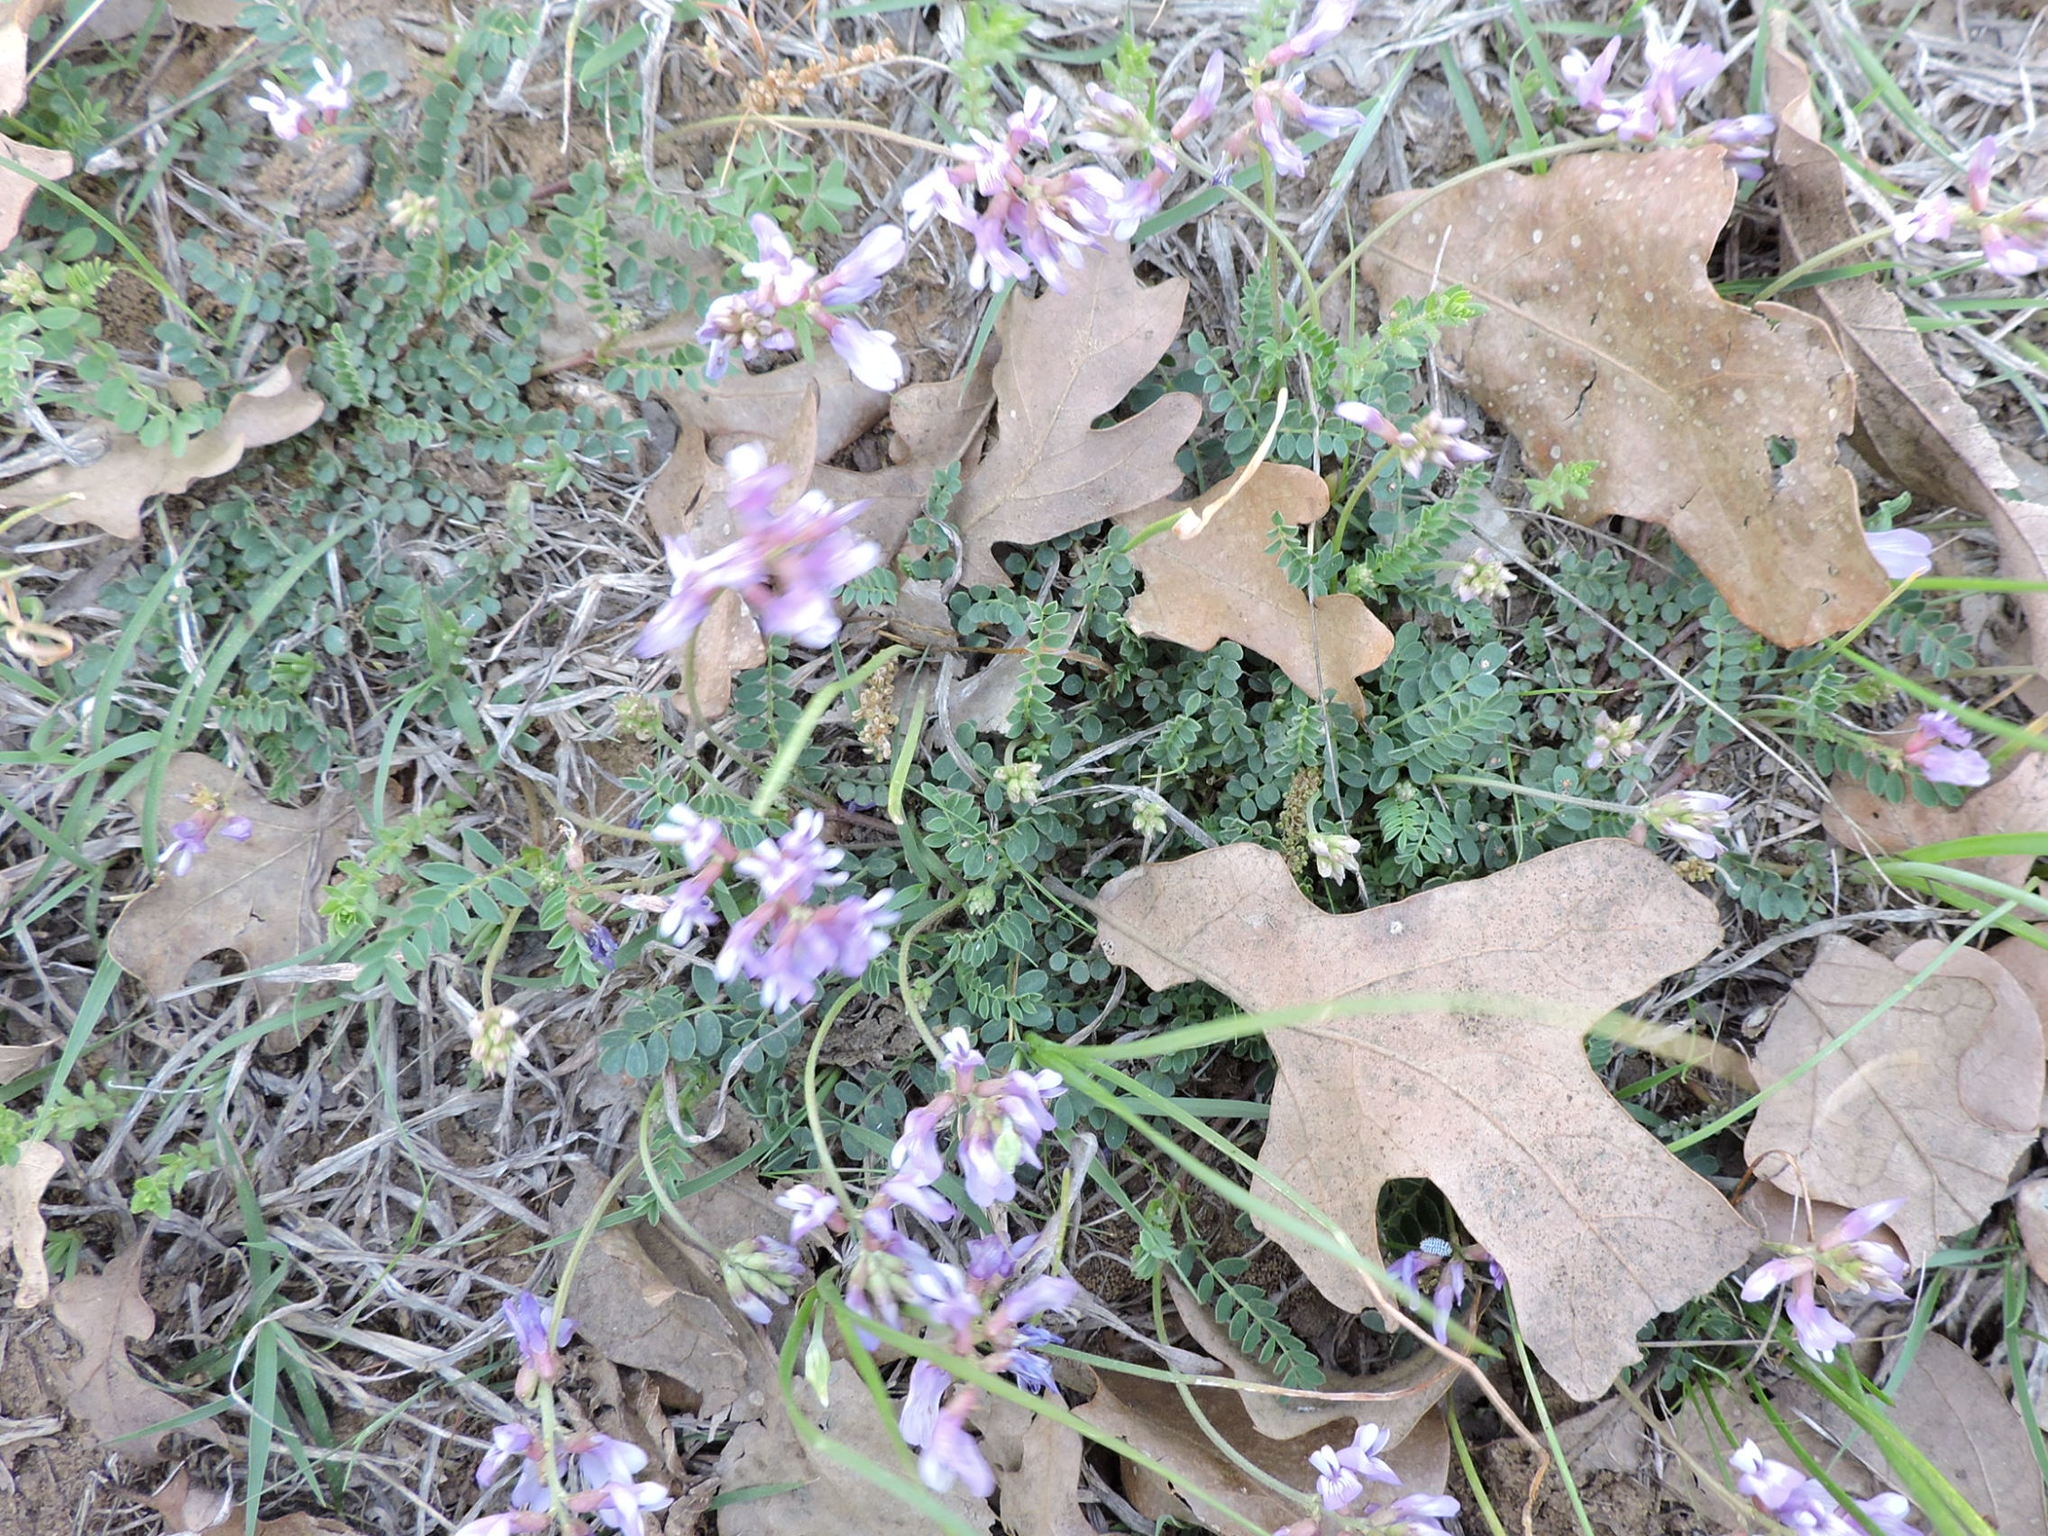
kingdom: Plantae
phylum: Tracheophyta
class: Magnoliopsida
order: Fabales
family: Fabaceae
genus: Astragalus
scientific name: Astragalus distortus
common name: Ozark milk-vetch
